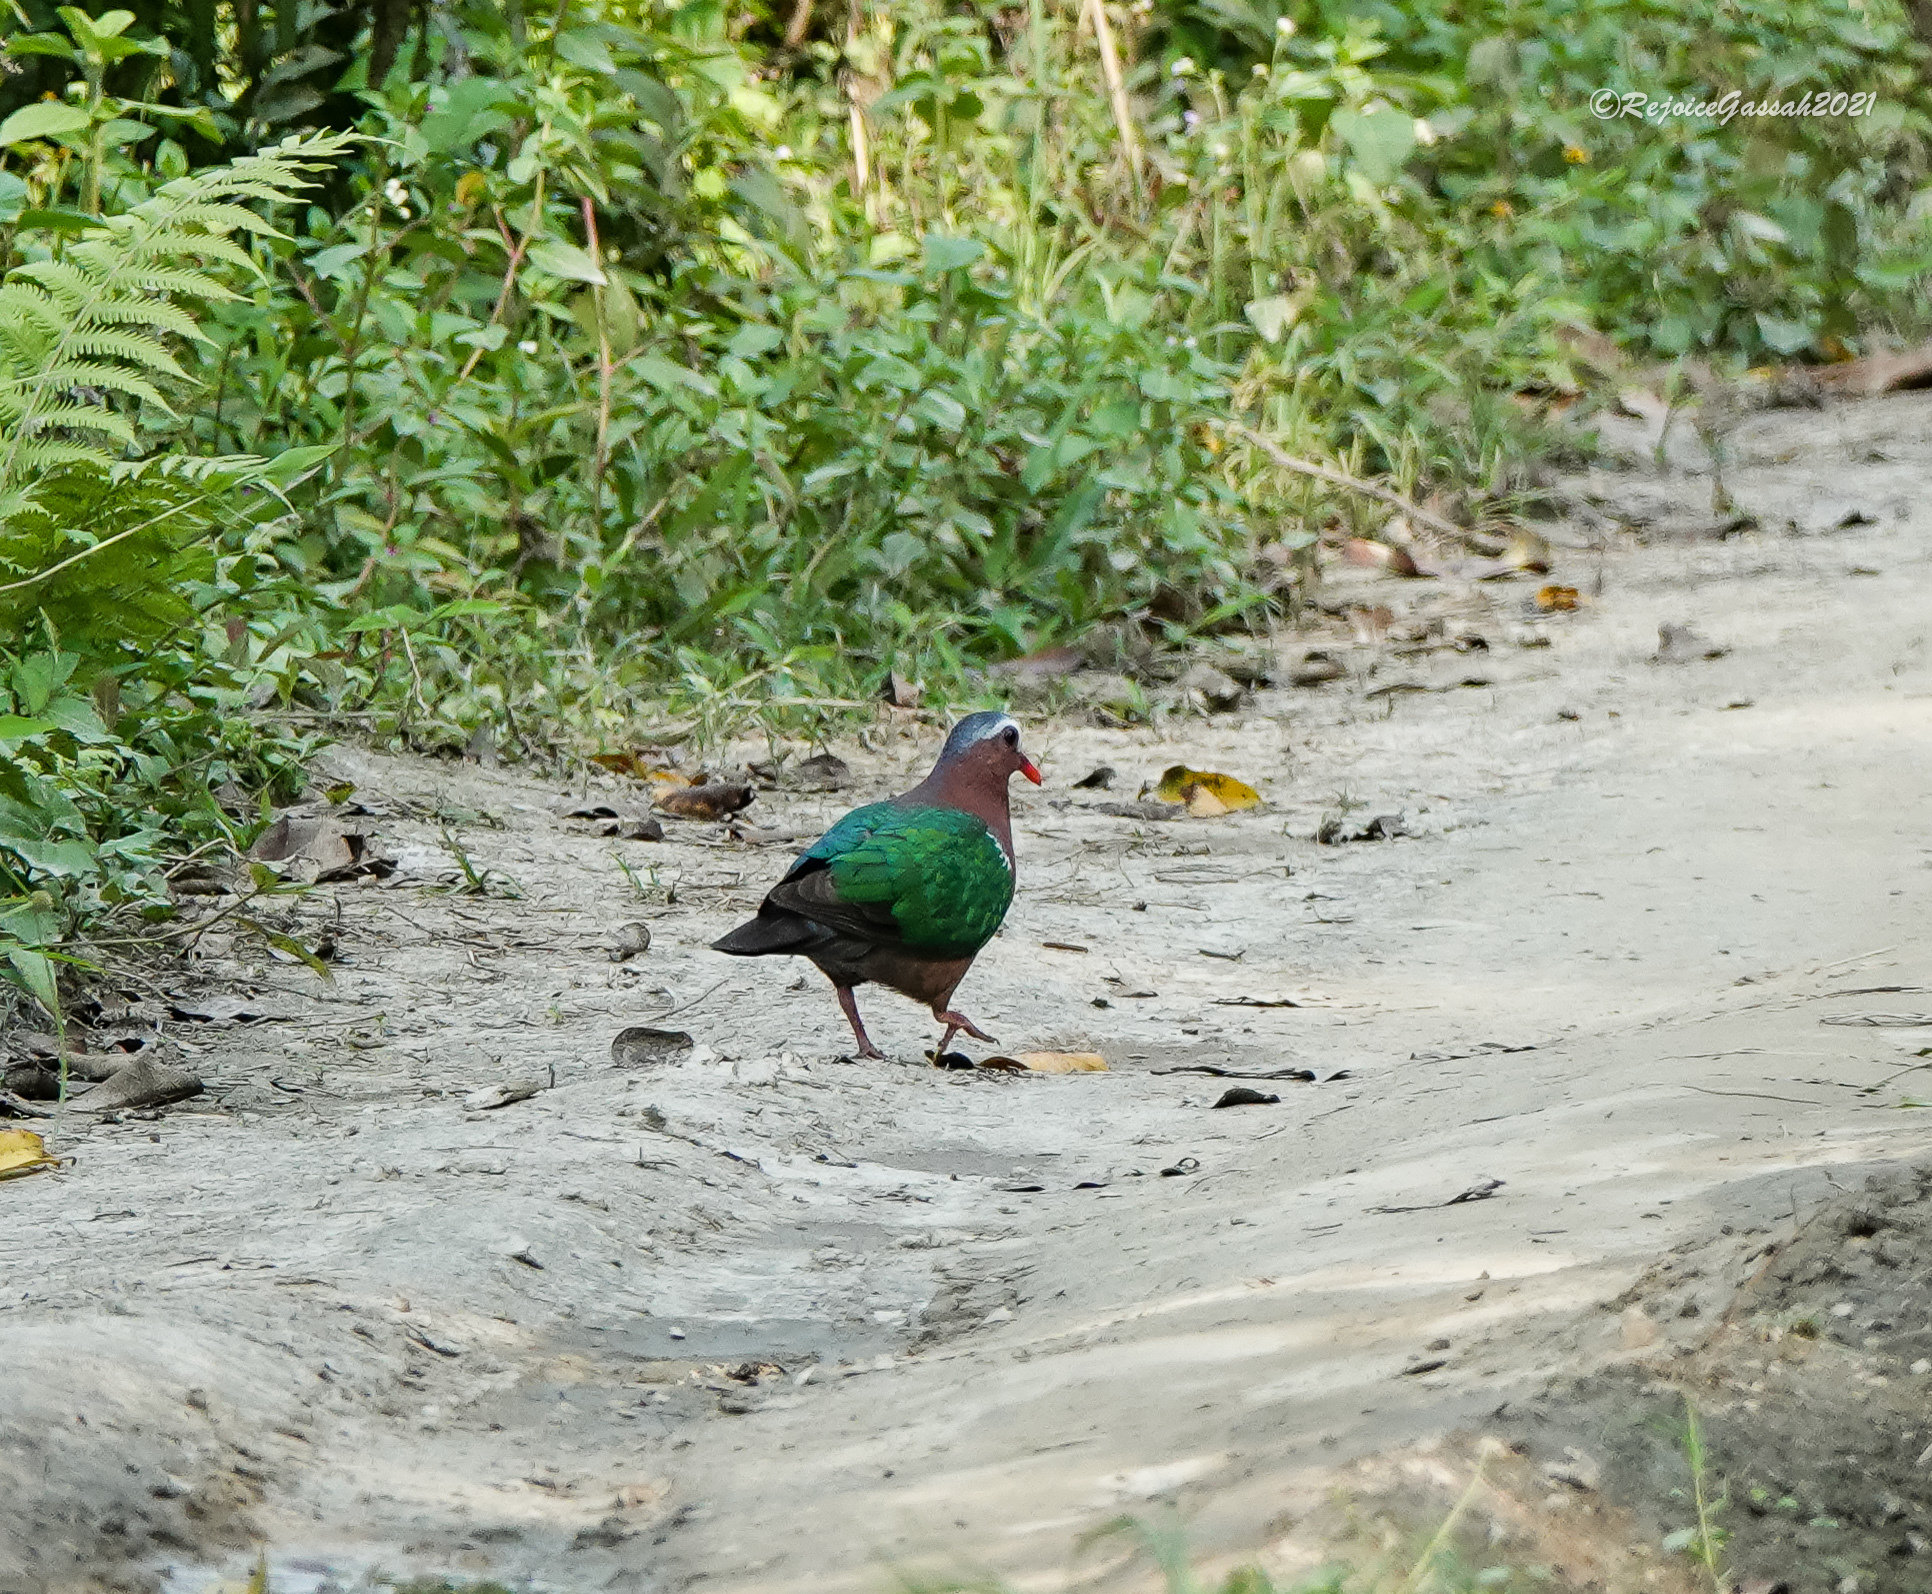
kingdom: Animalia
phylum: Chordata
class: Aves
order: Columbiformes
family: Columbidae
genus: Chalcophaps
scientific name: Chalcophaps indica
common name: Common emerald dove
